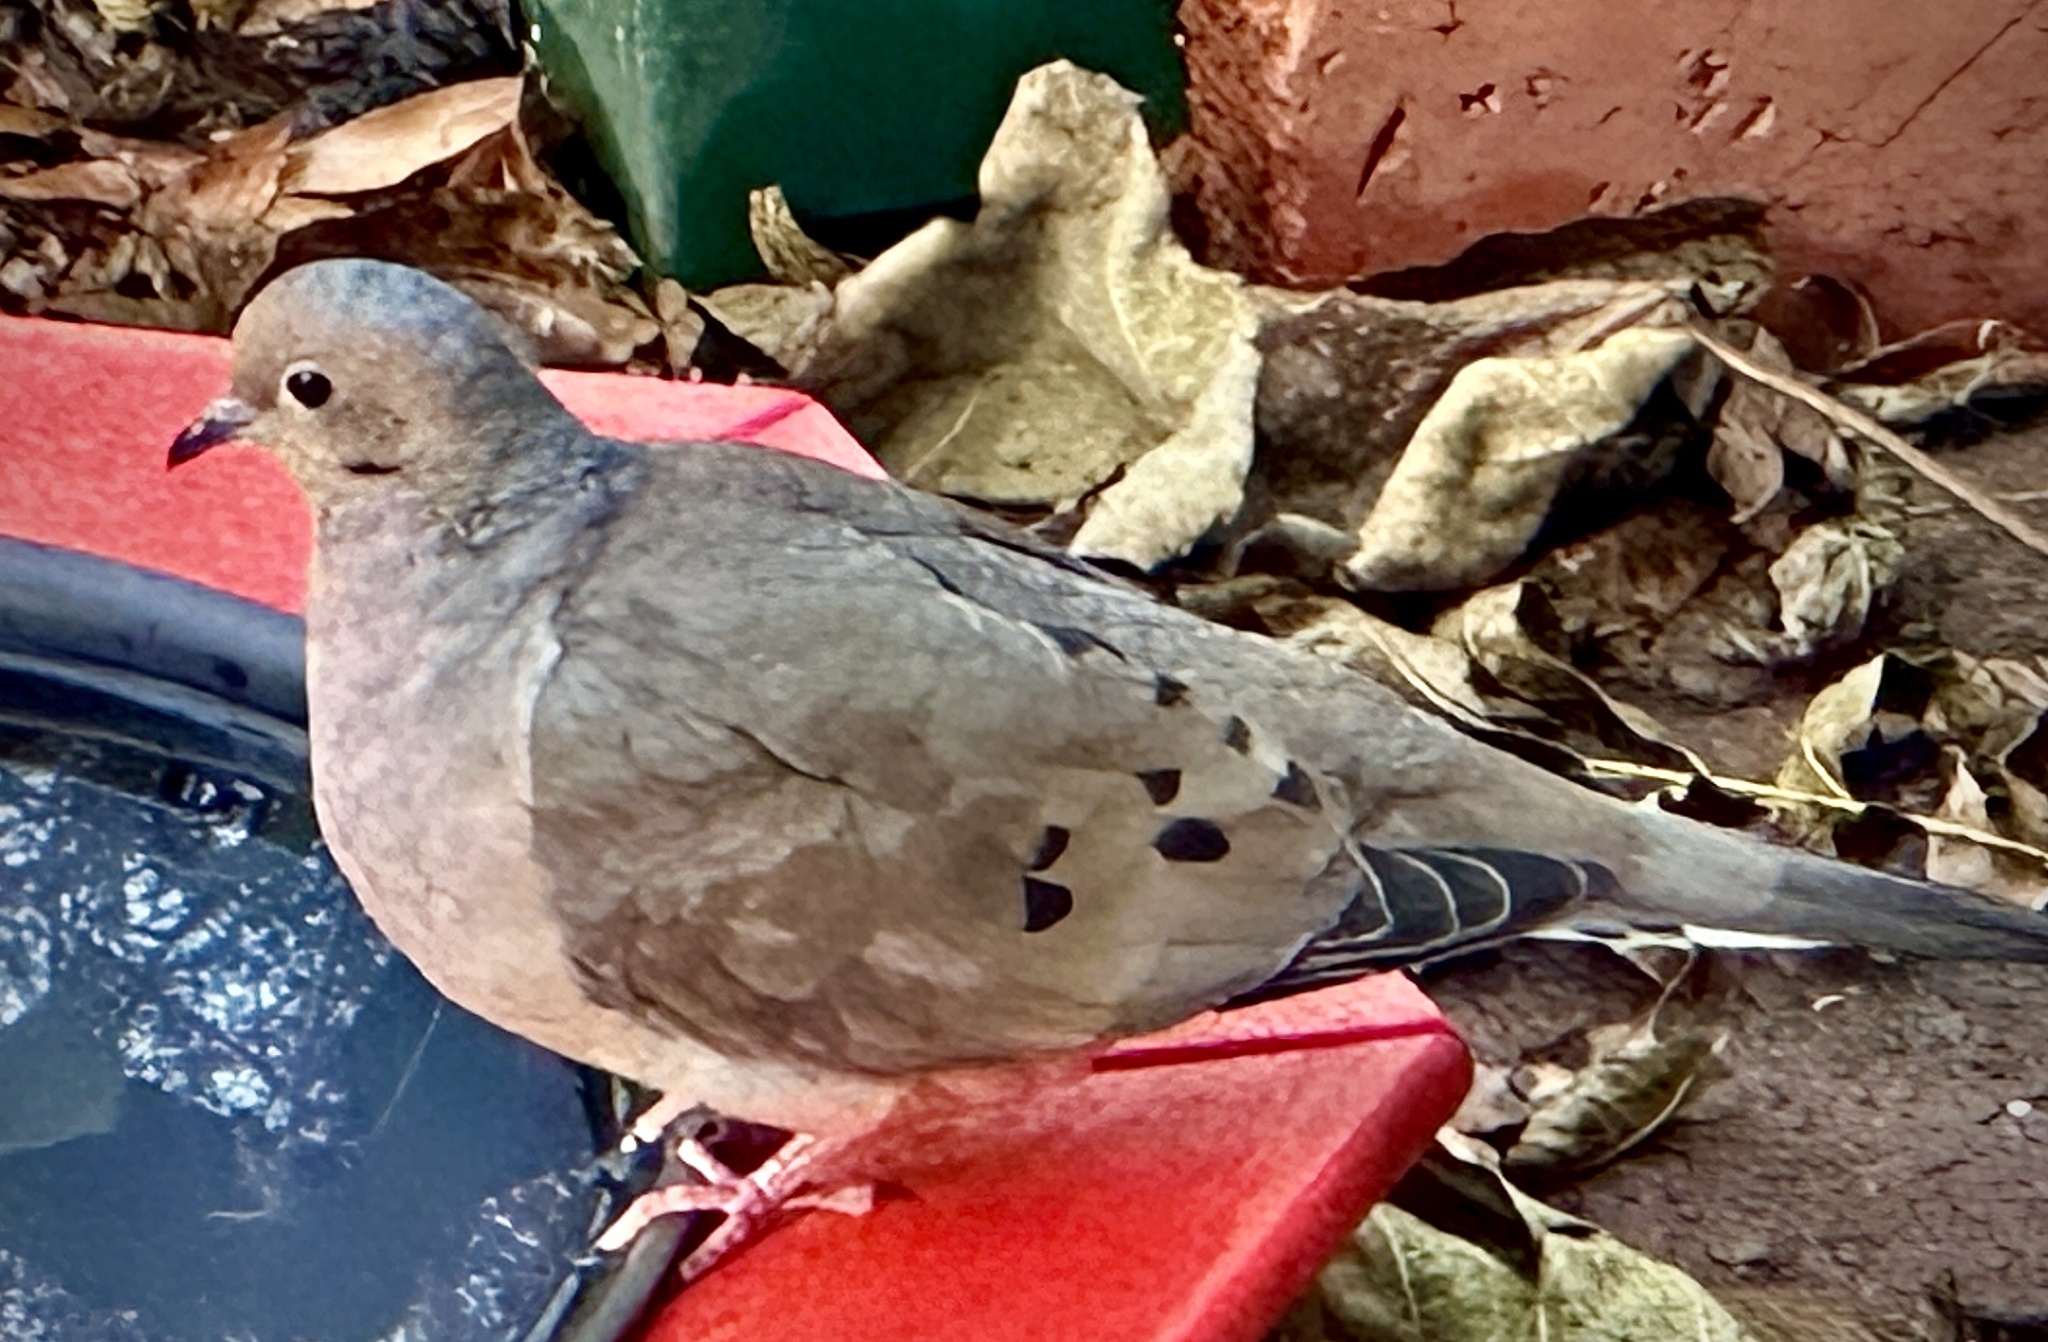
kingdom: Animalia
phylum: Chordata
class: Aves
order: Columbiformes
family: Columbidae
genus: Zenaida
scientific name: Zenaida macroura
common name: Mourning dove
